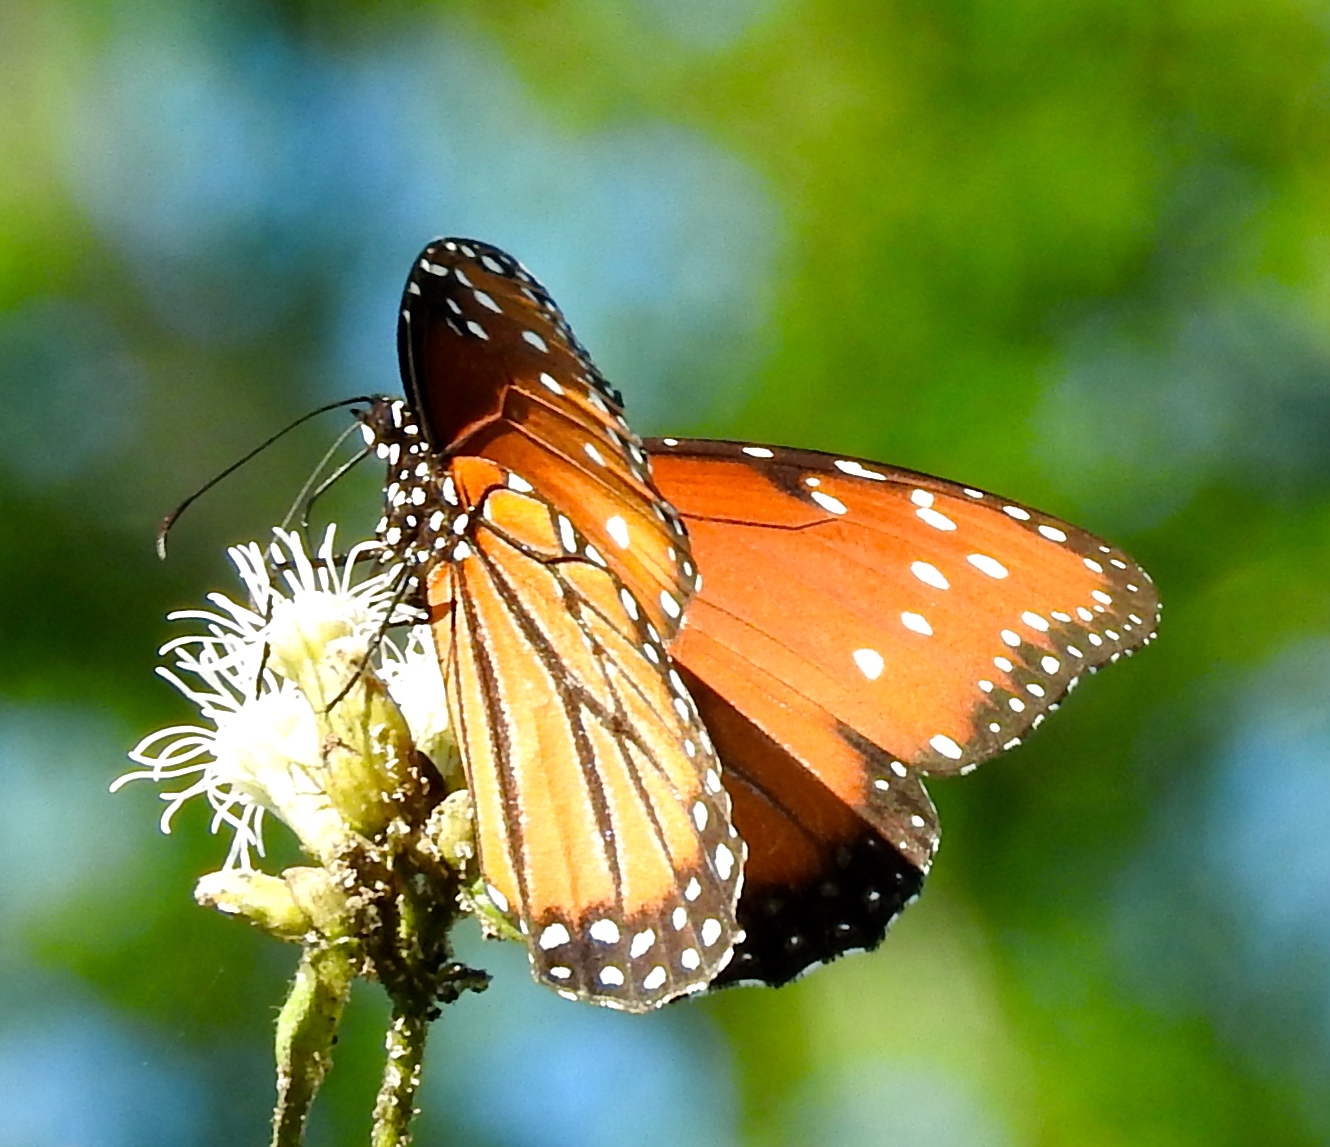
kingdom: Animalia
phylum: Arthropoda
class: Insecta
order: Lepidoptera
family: Nymphalidae
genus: Danaus
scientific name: Danaus gilippus
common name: Queen
